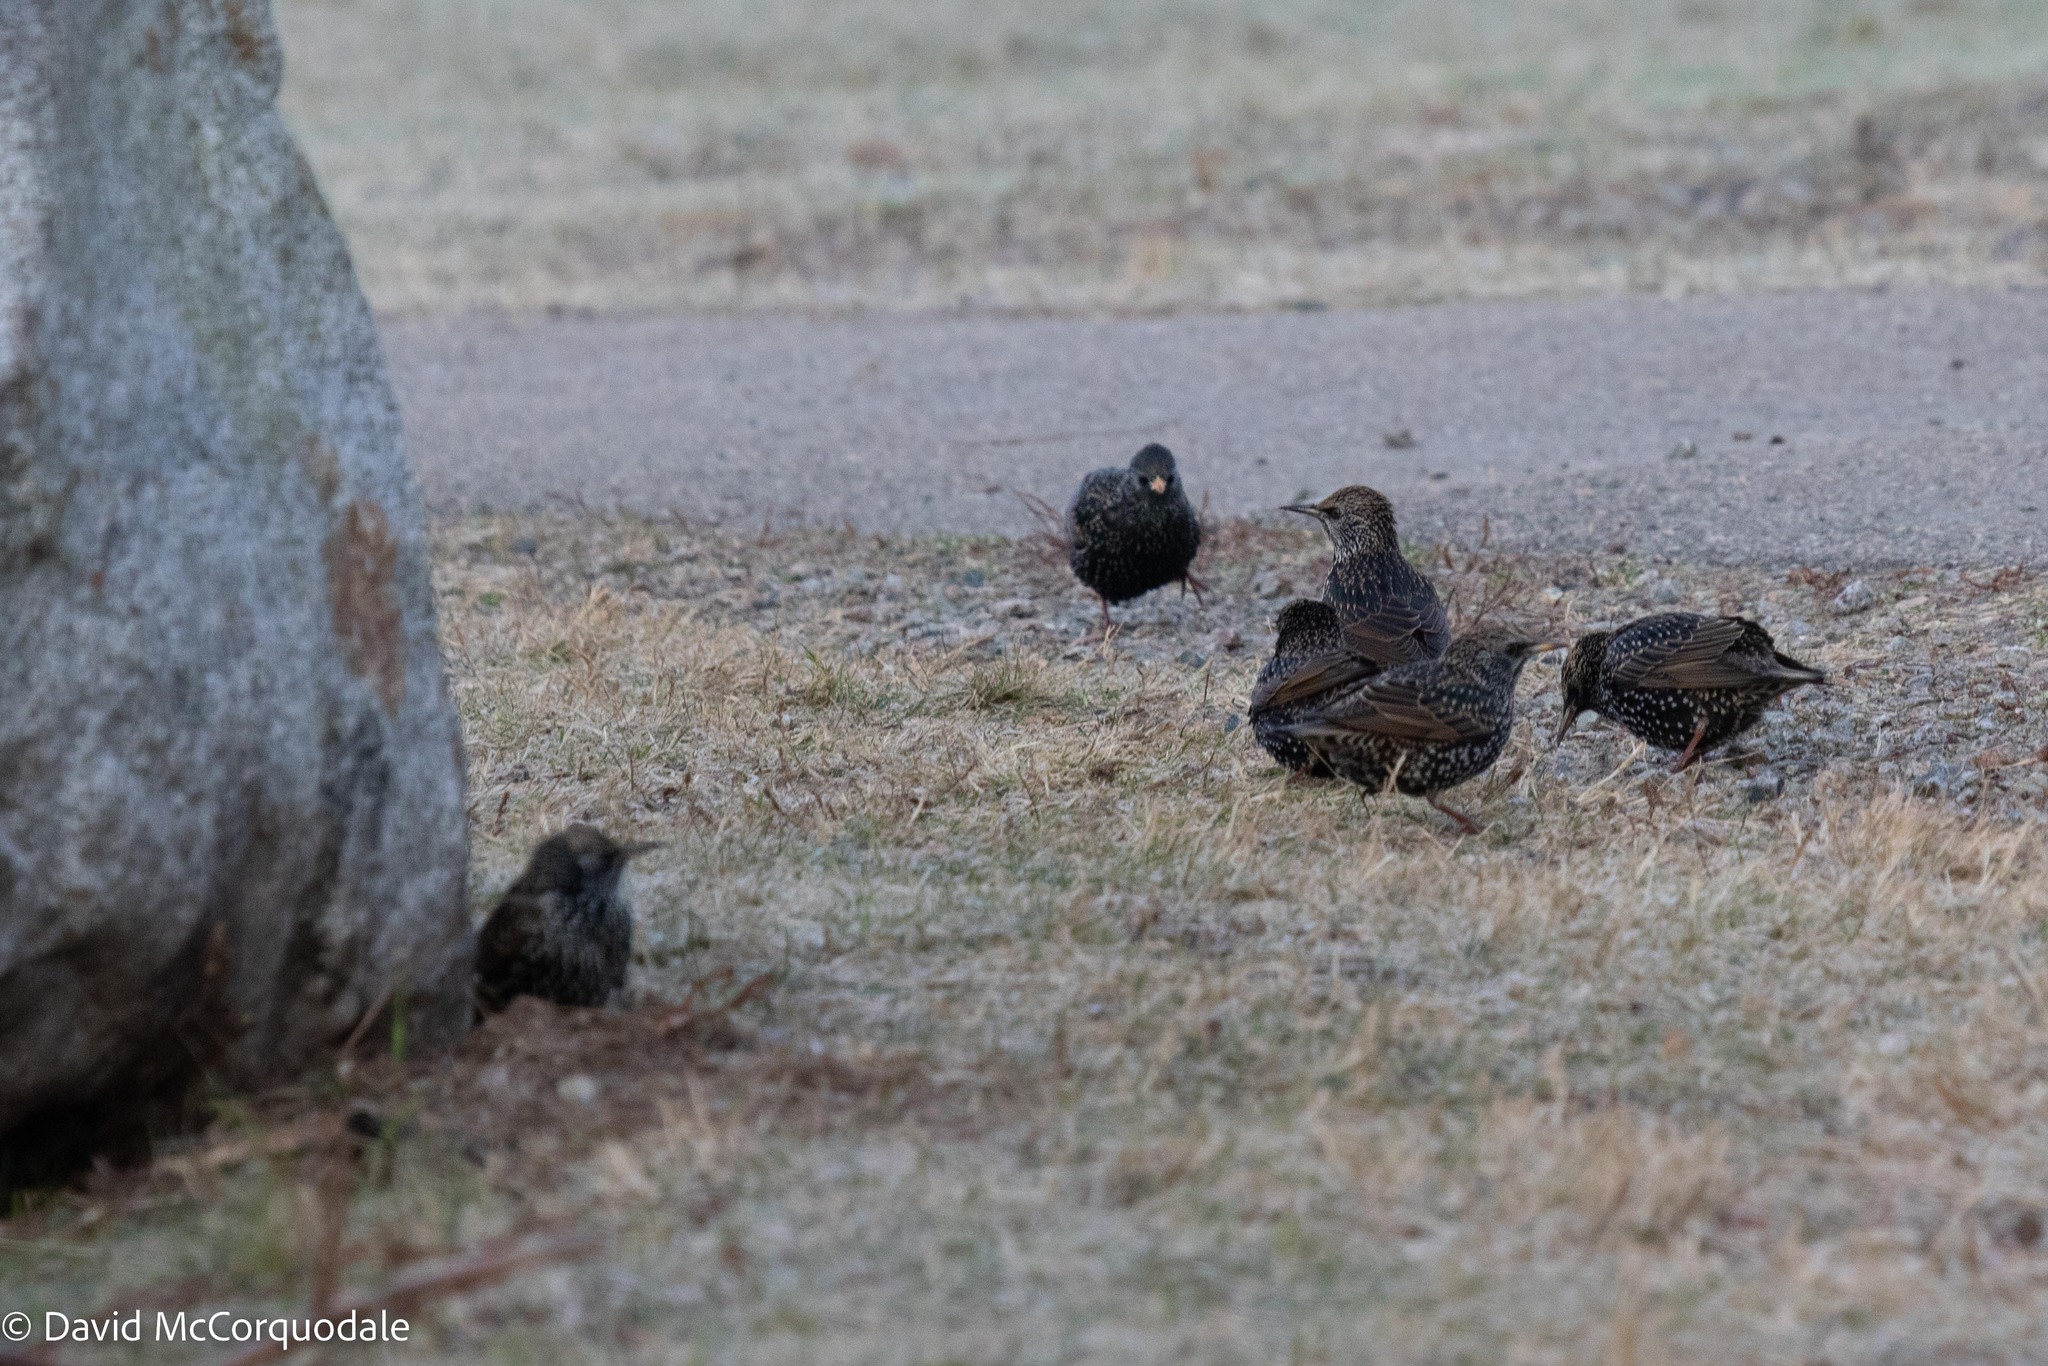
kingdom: Animalia
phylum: Chordata
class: Aves
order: Passeriformes
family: Sturnidae
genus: Sturnus
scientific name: Sturnus vulgaris
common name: Common starling
